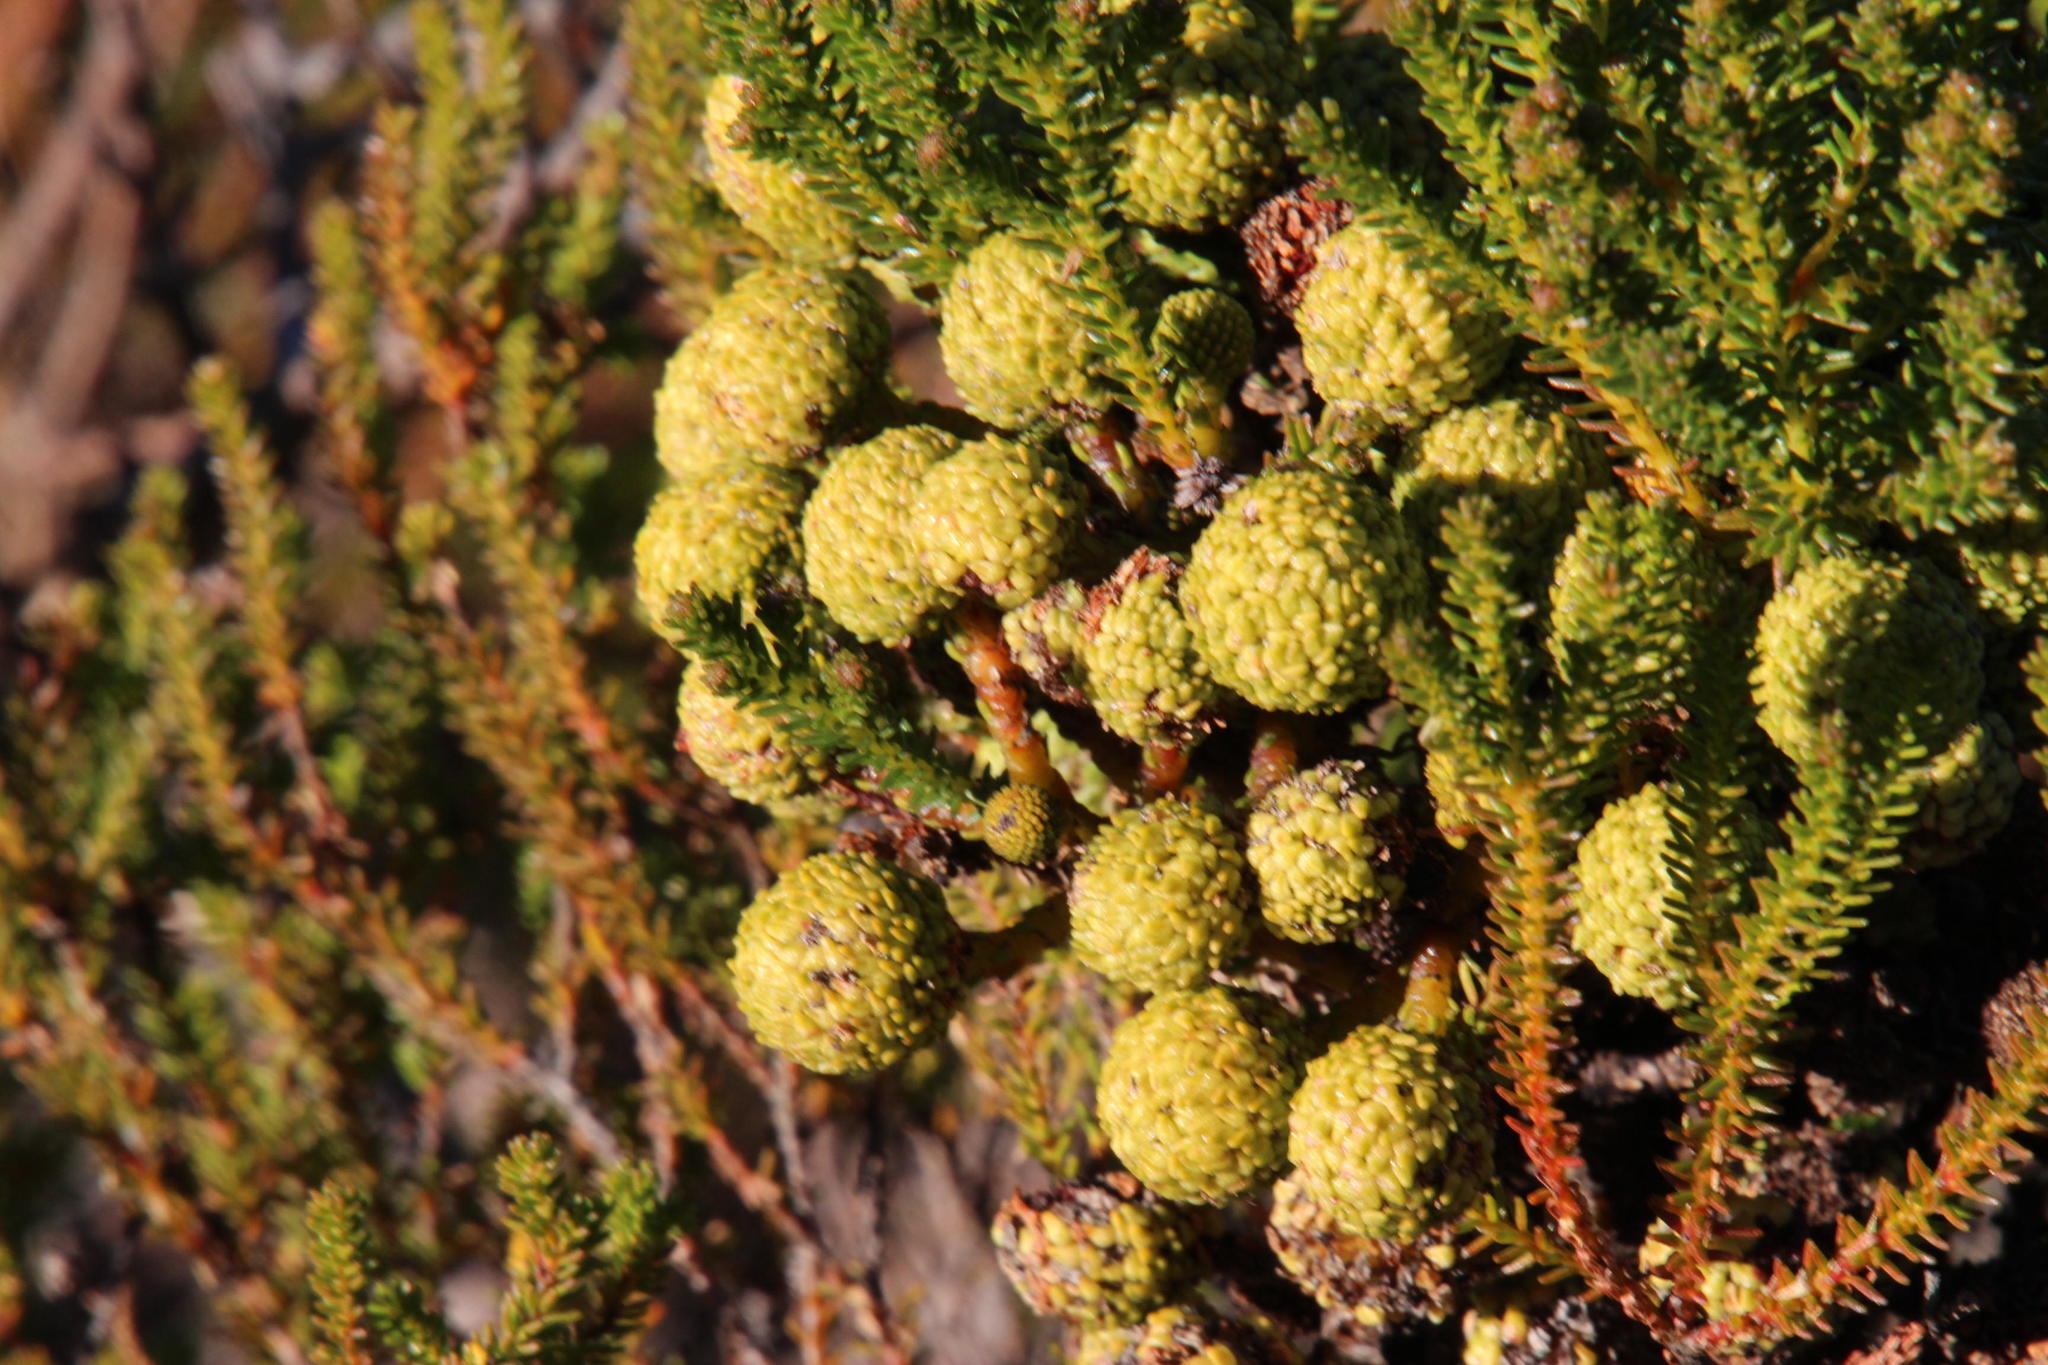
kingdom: Plantae
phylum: Tracheophyta
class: Magnoliopsida
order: Bruniales
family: Bruniaceae
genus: Berzelia
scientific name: Berzelia abrotanoides
